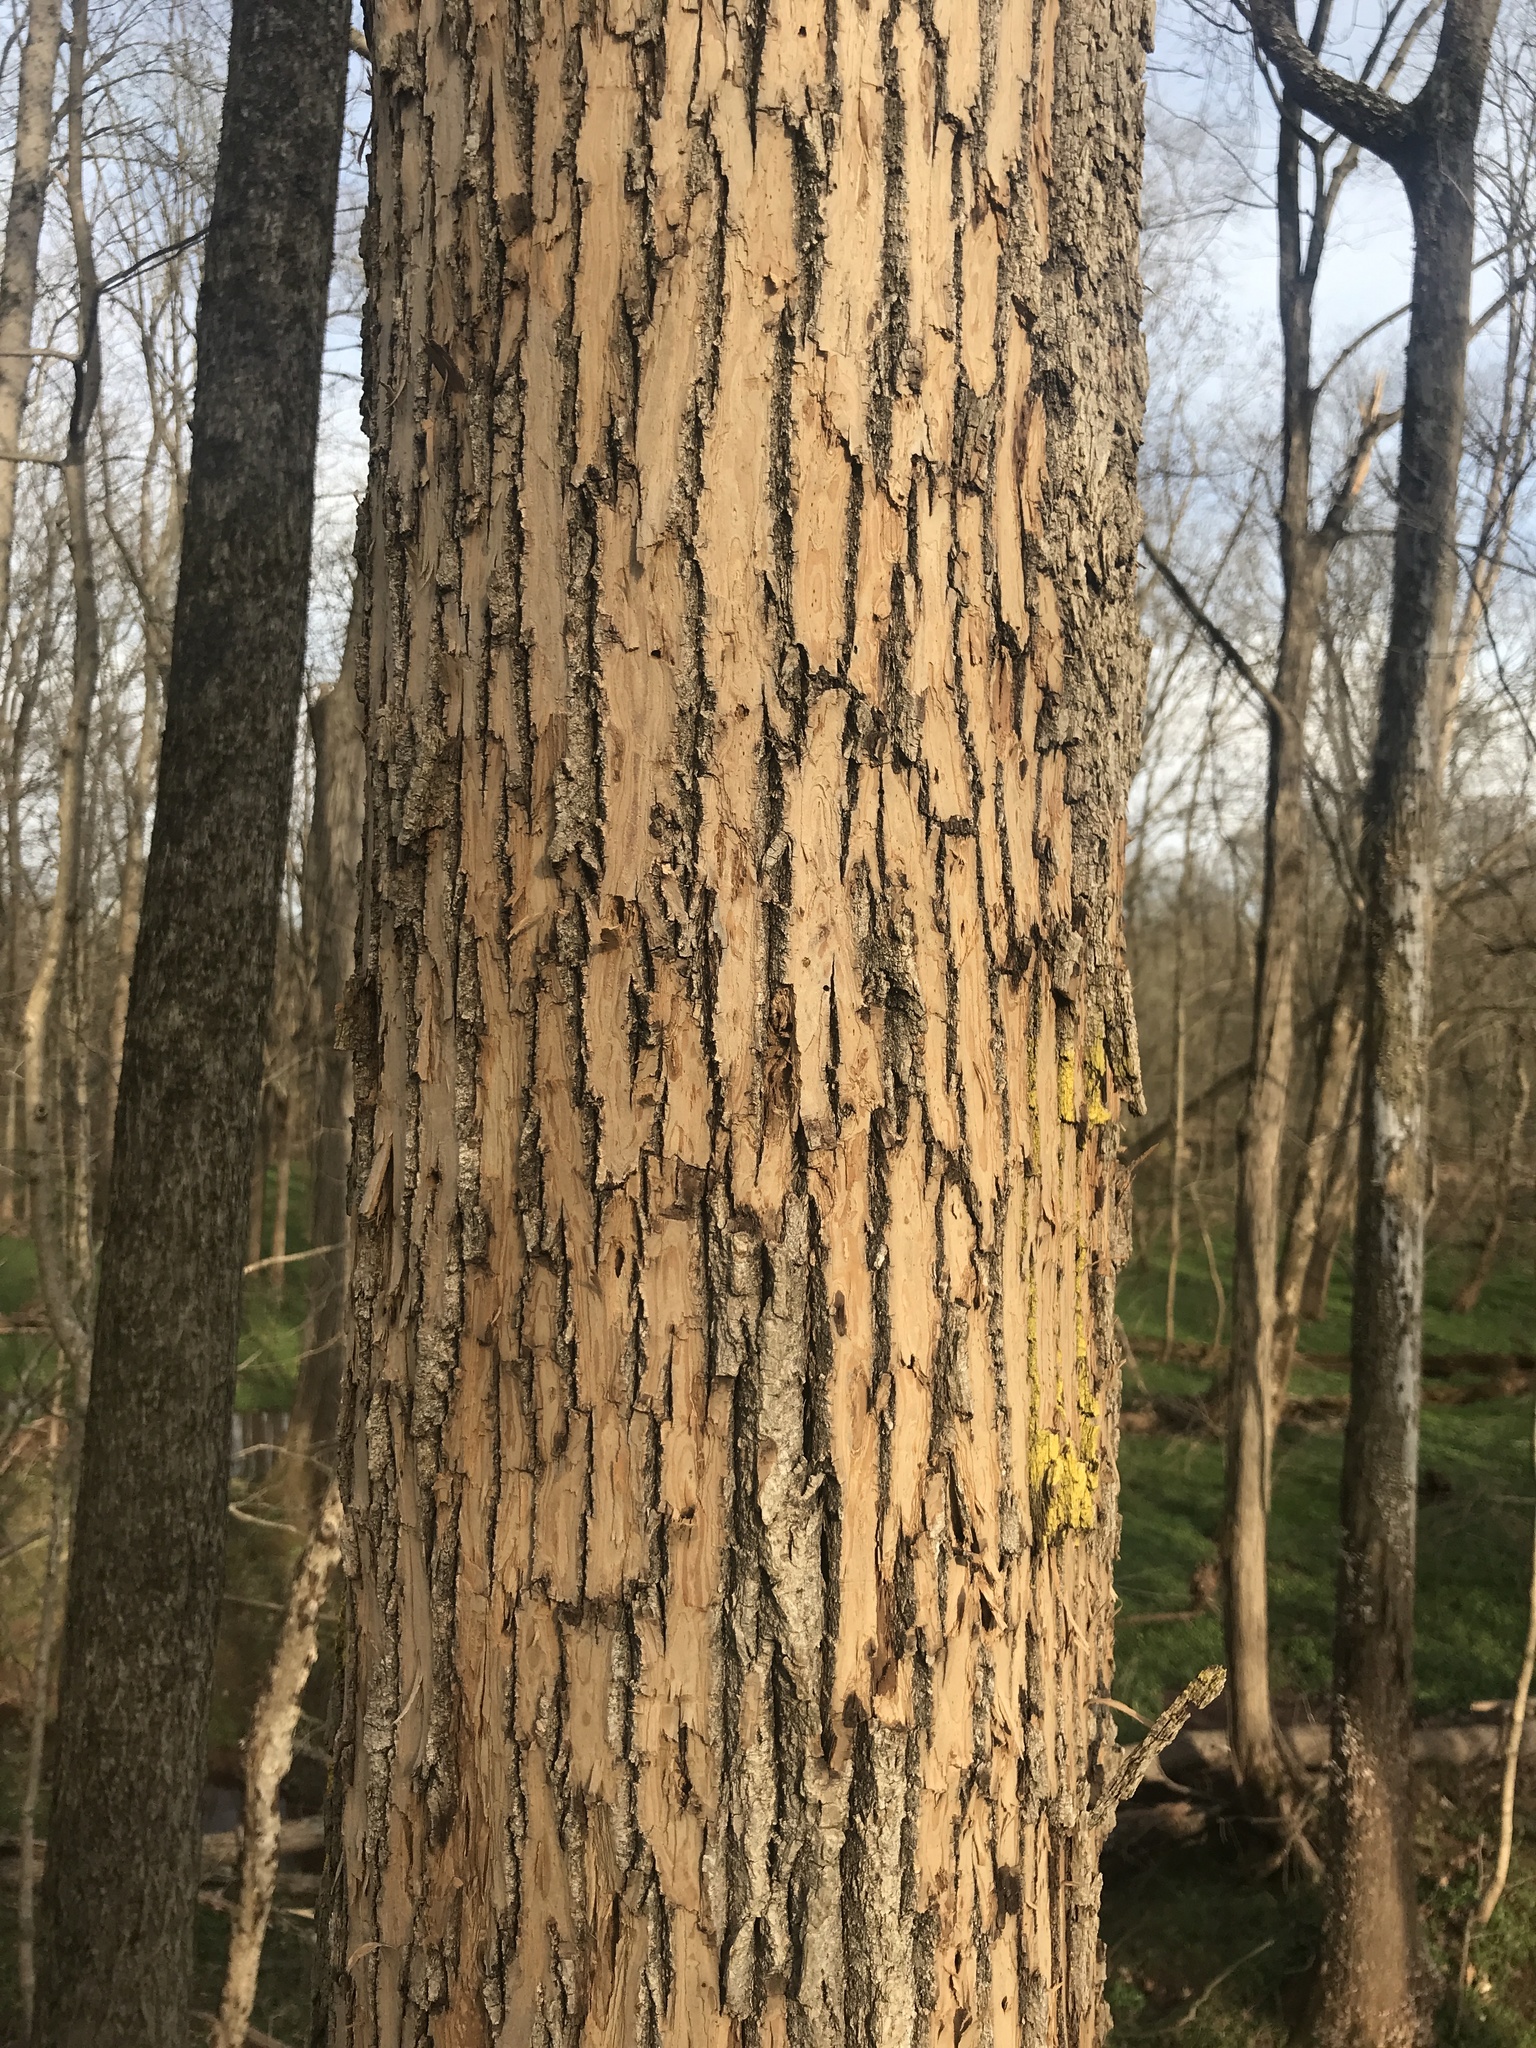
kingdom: Animalia
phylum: Arthropoda
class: Insecta
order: Coleoptera
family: Buprestidae
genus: Agrilus
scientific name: Agrilus planipennis
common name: Emerald ash borer
